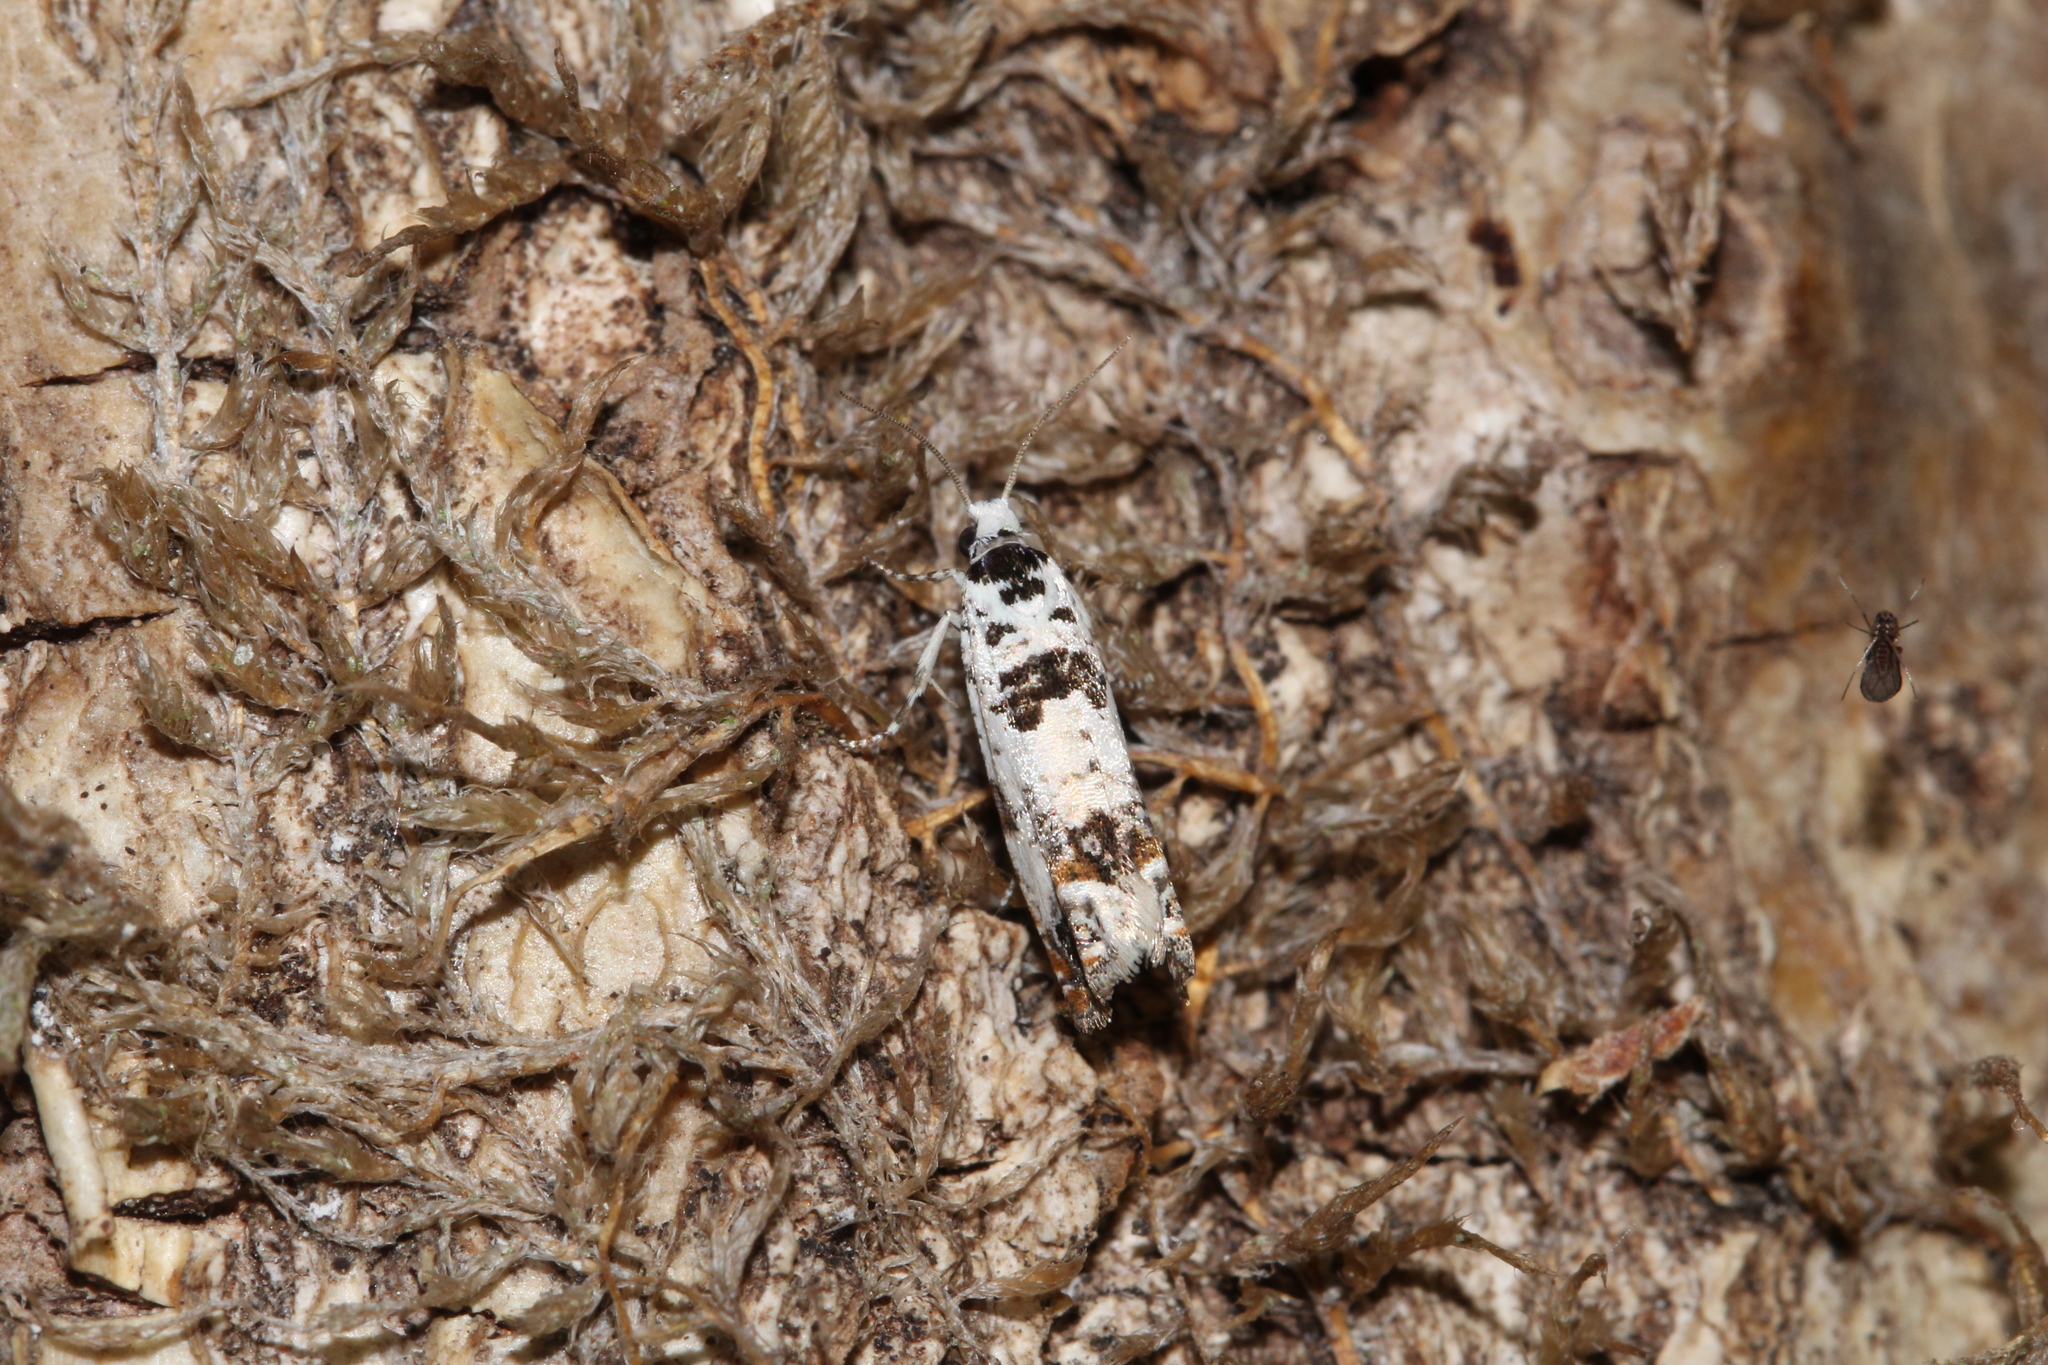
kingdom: Animalia
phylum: Arthropoda
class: Insecta
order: Lepidoptera
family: Tortricidae
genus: Eucosma
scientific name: Eucosma campoliliana
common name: Marbled bell
